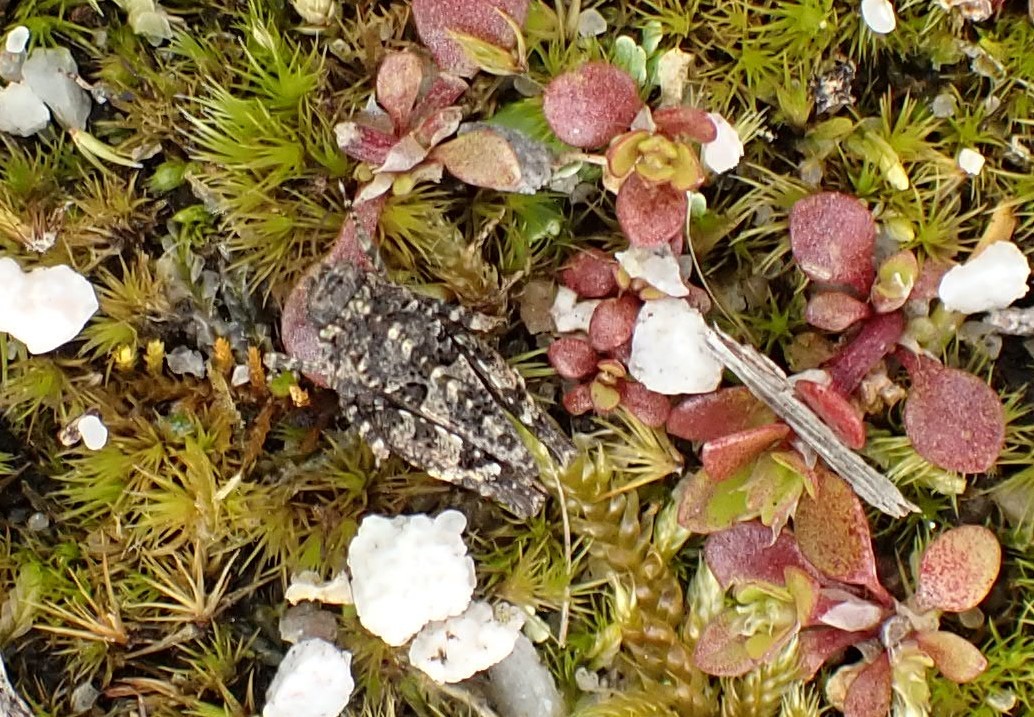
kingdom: Animalia
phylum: Arthropoda
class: Insecta
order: Orthoptera
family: Tetrigidae
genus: Paratettix
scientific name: Paratettix argillaceus
